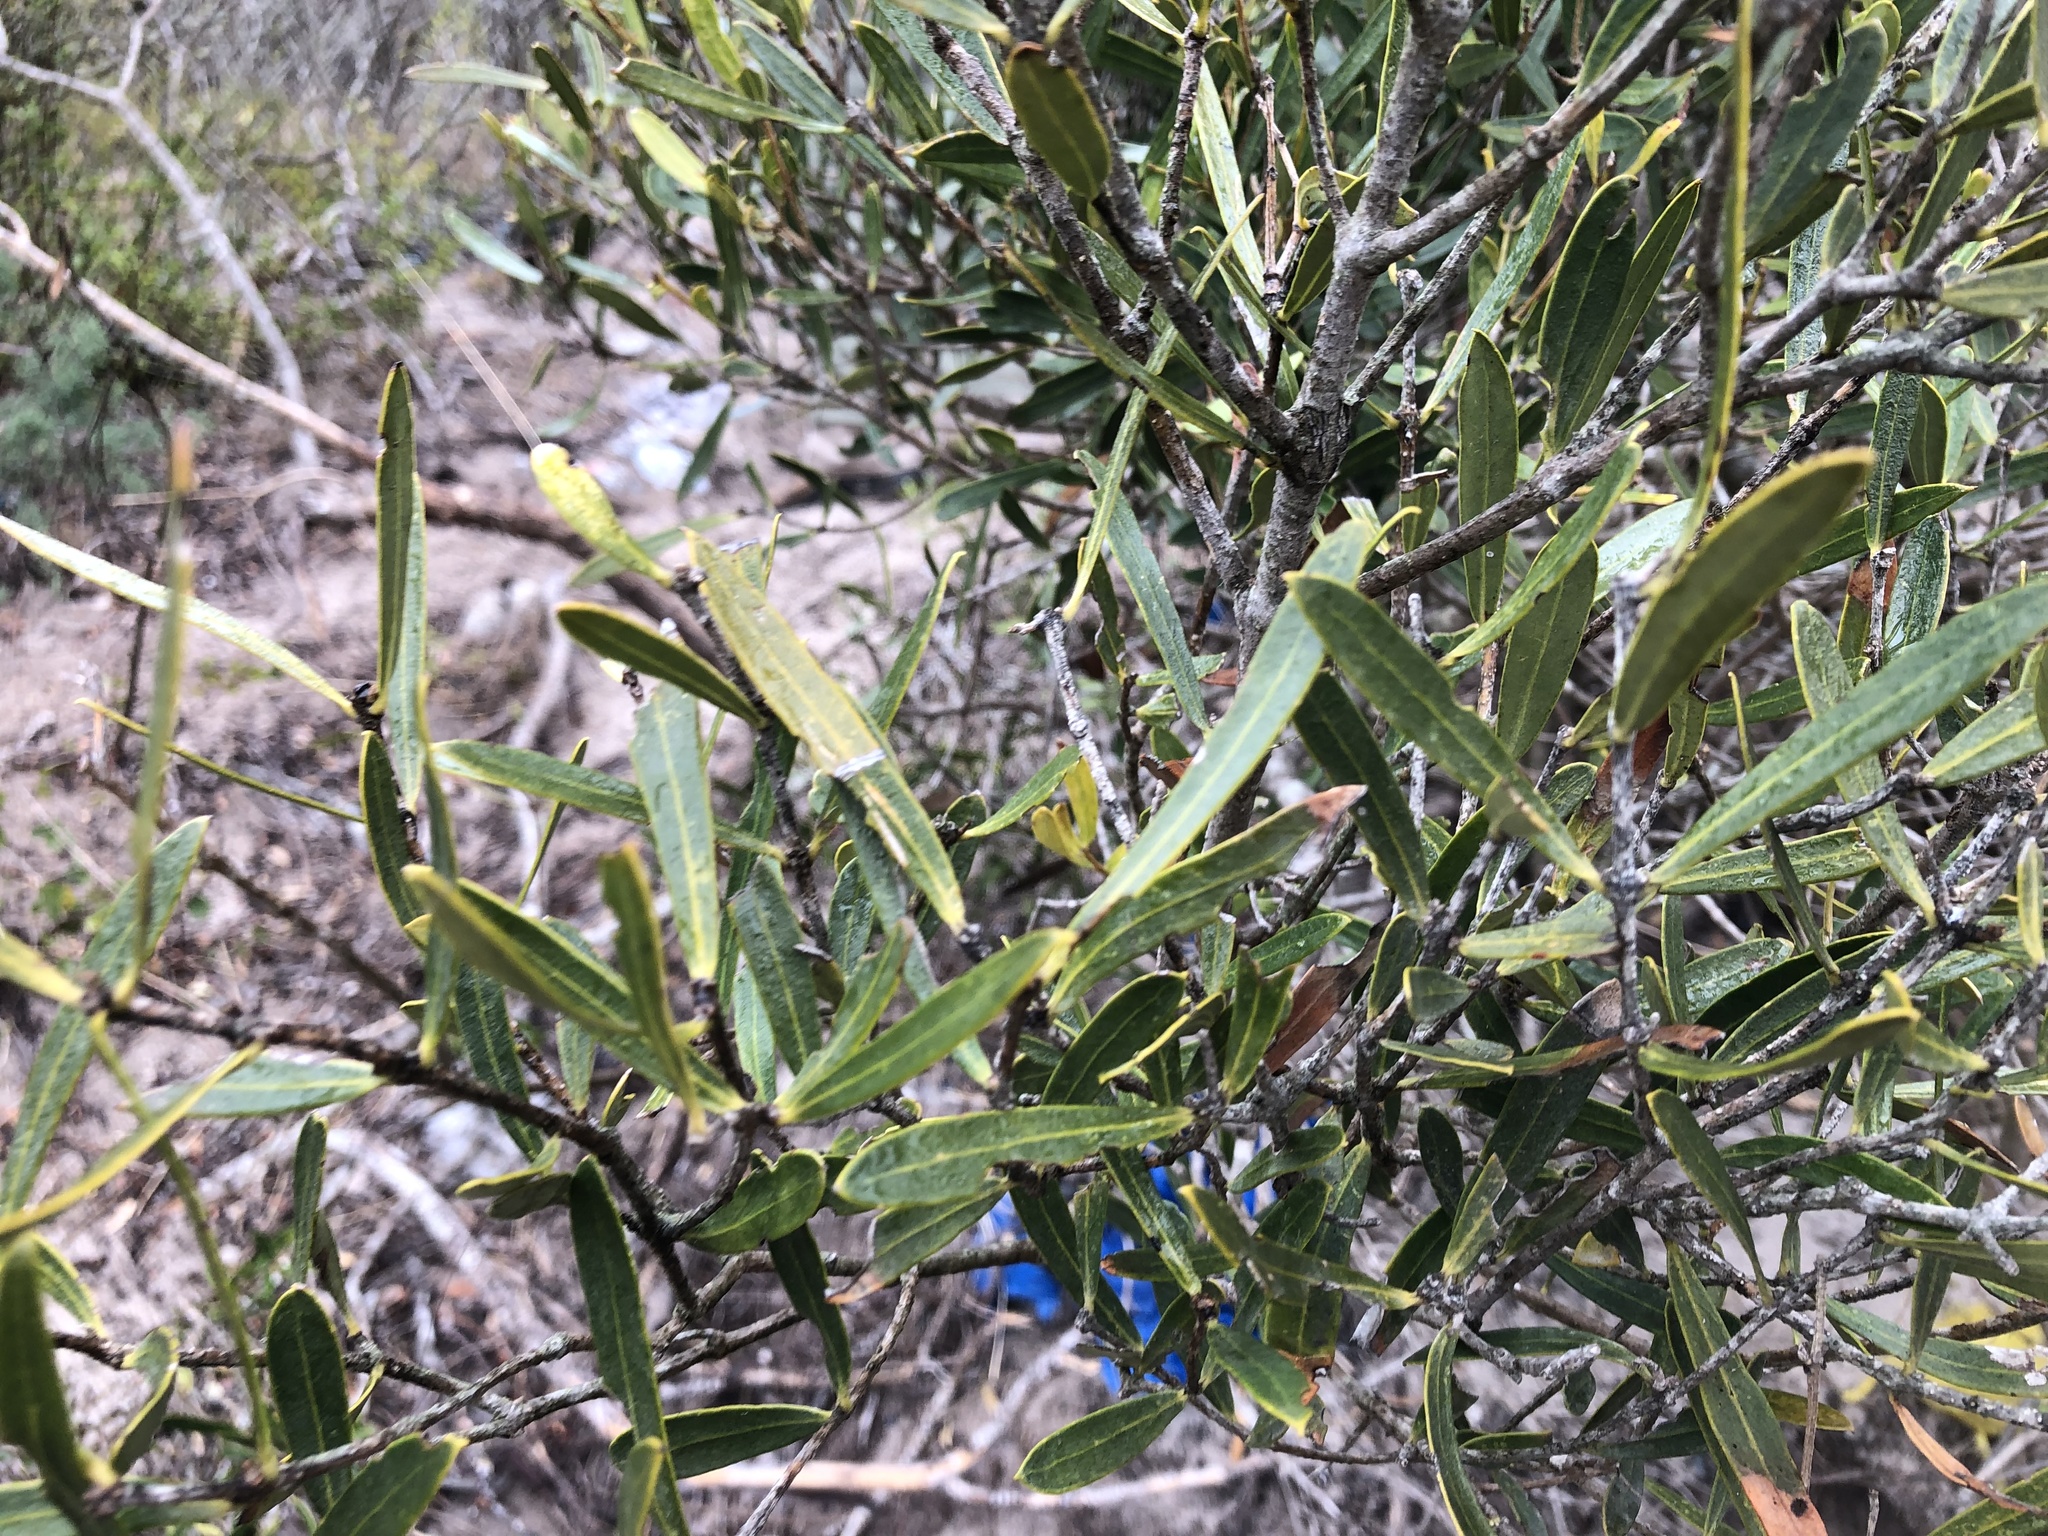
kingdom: Plantae
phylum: Tracheophyta
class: Magnoliopsida
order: Lamiales
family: Oleaceae
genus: Olea
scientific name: Olea exasperata
